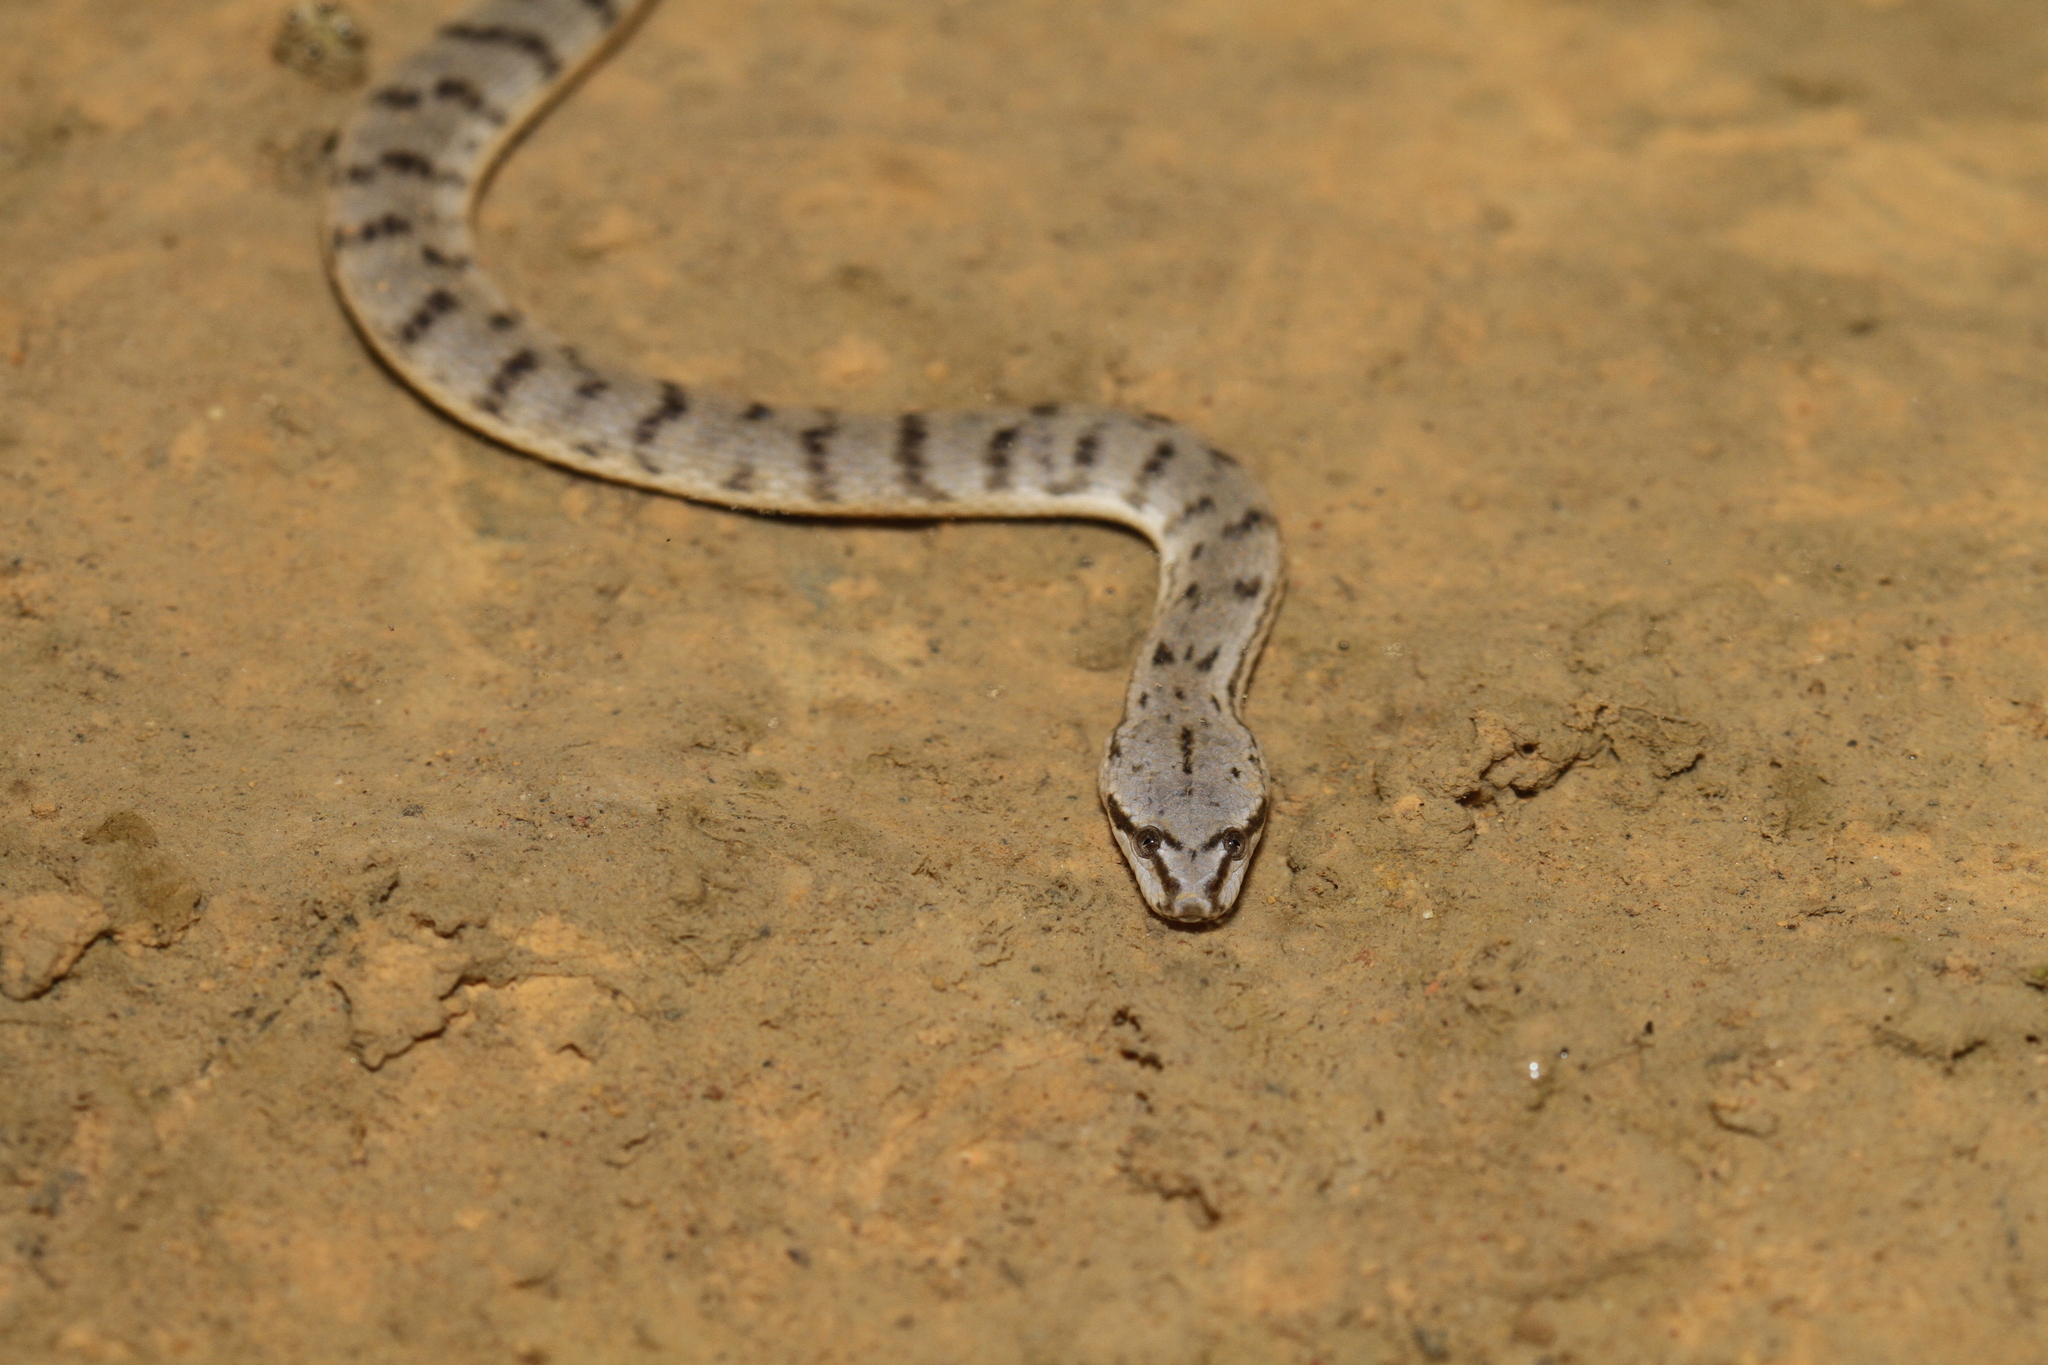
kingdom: Animalia
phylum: Chordata
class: Squamata
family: Homalopsidae
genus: Cerberus
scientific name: Cerberus schneiderii
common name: Southeast asian bockadam
